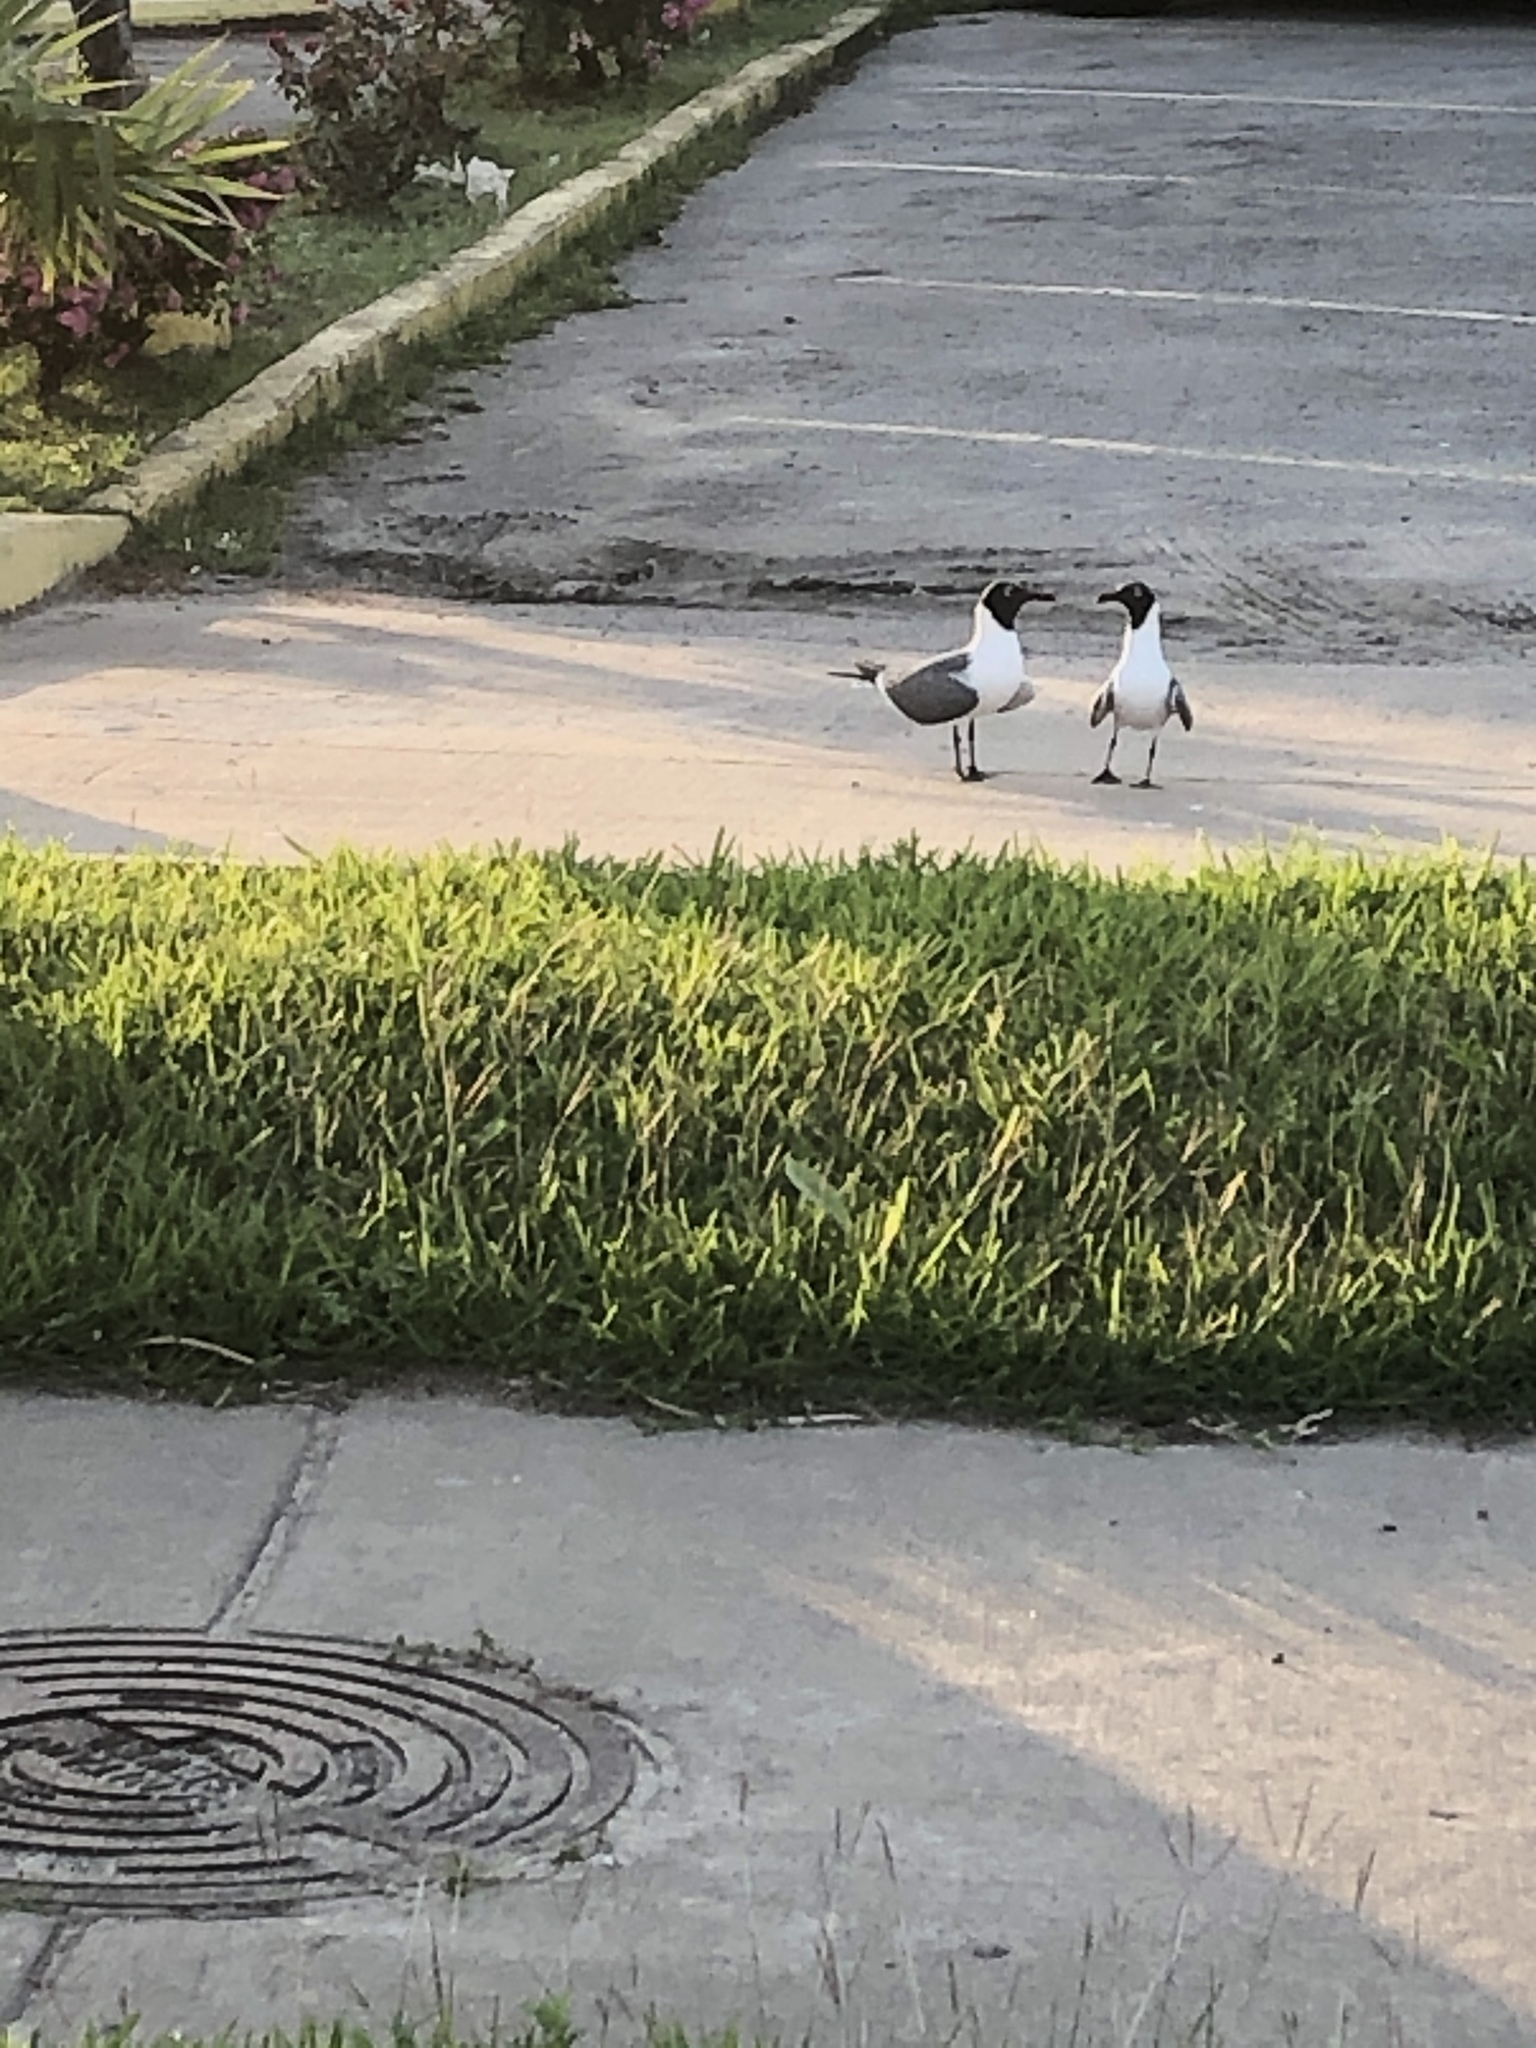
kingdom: Animalia
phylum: Chordata
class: Aves
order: Charadriiformes
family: Laridae
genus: Leucophaeus
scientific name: Leucophaeus atricilla
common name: Laughing gull
